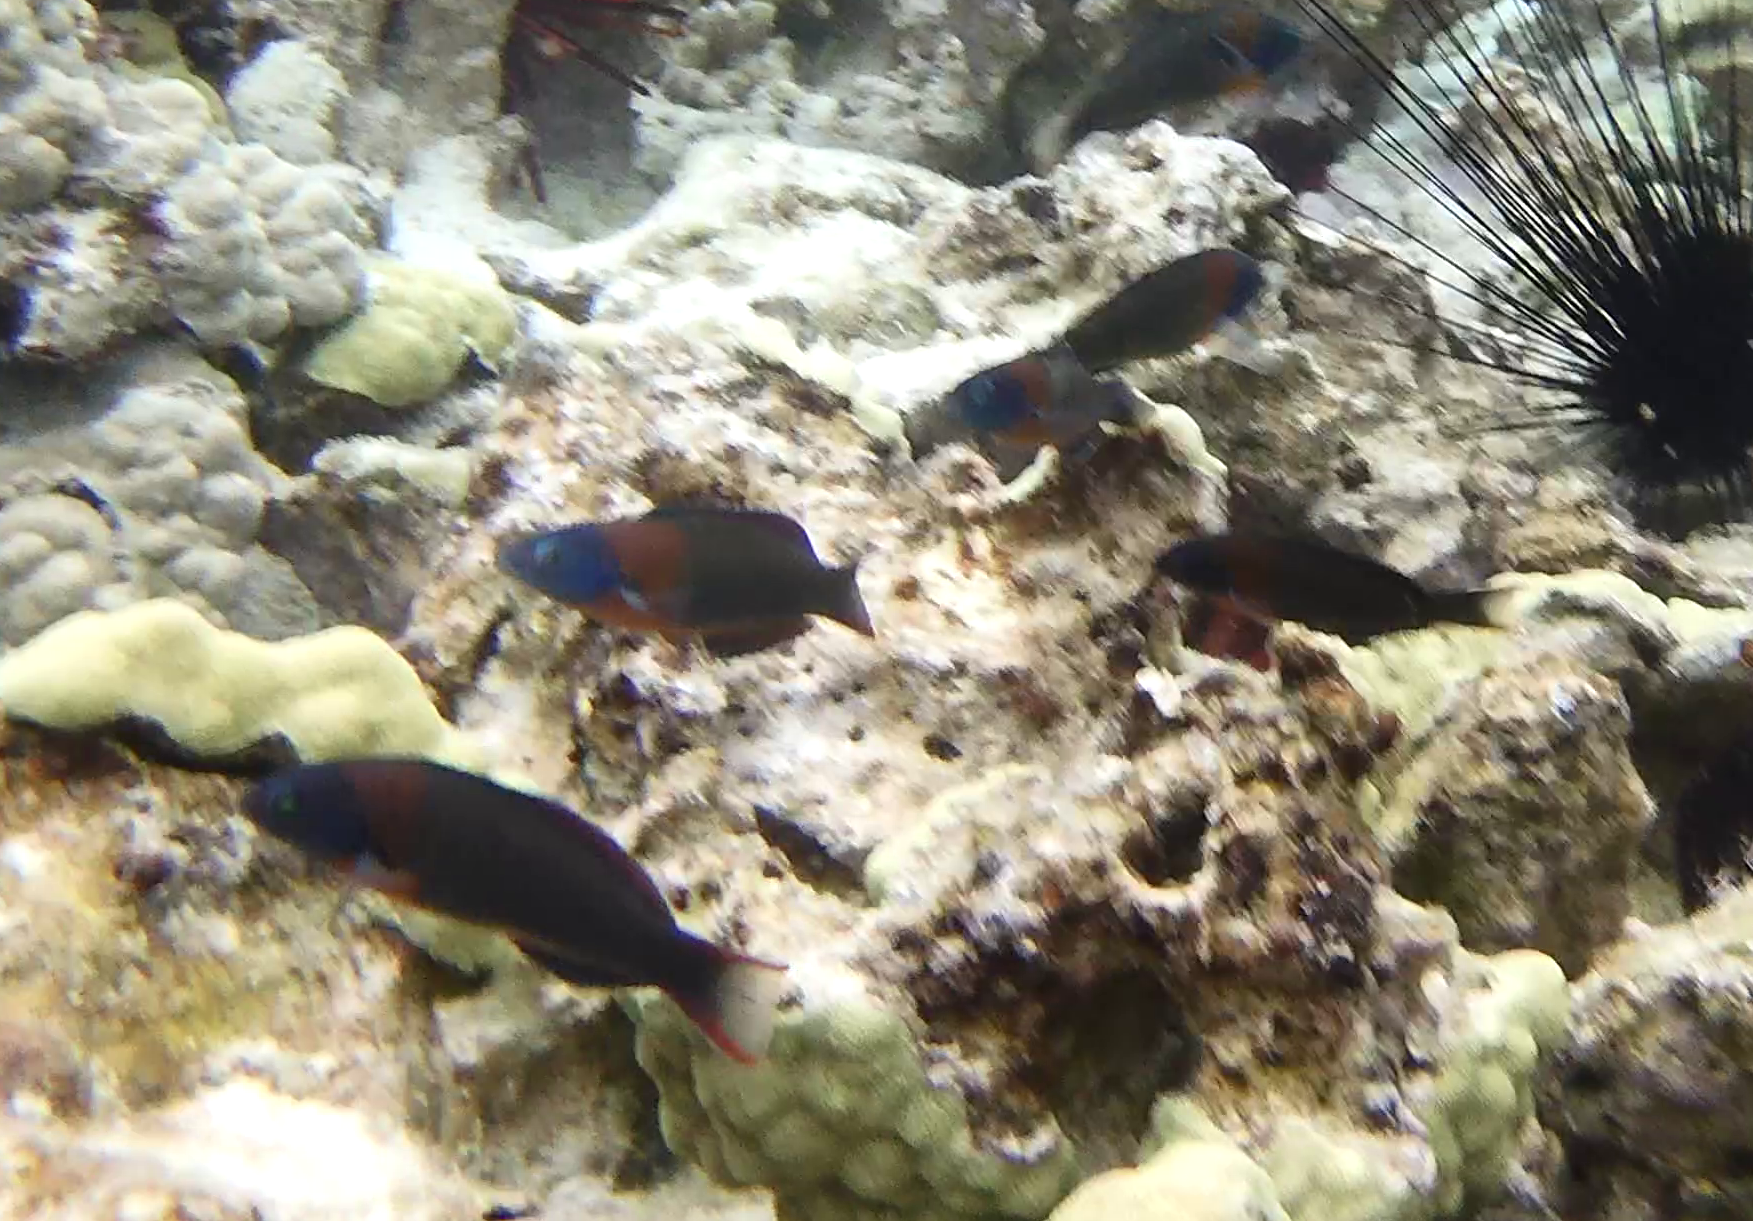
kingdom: Animalia
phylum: Chordata
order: Perciformes
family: Labridae
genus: Thalassoma
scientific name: Thalassoma duperrey
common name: Saddle wrasse
